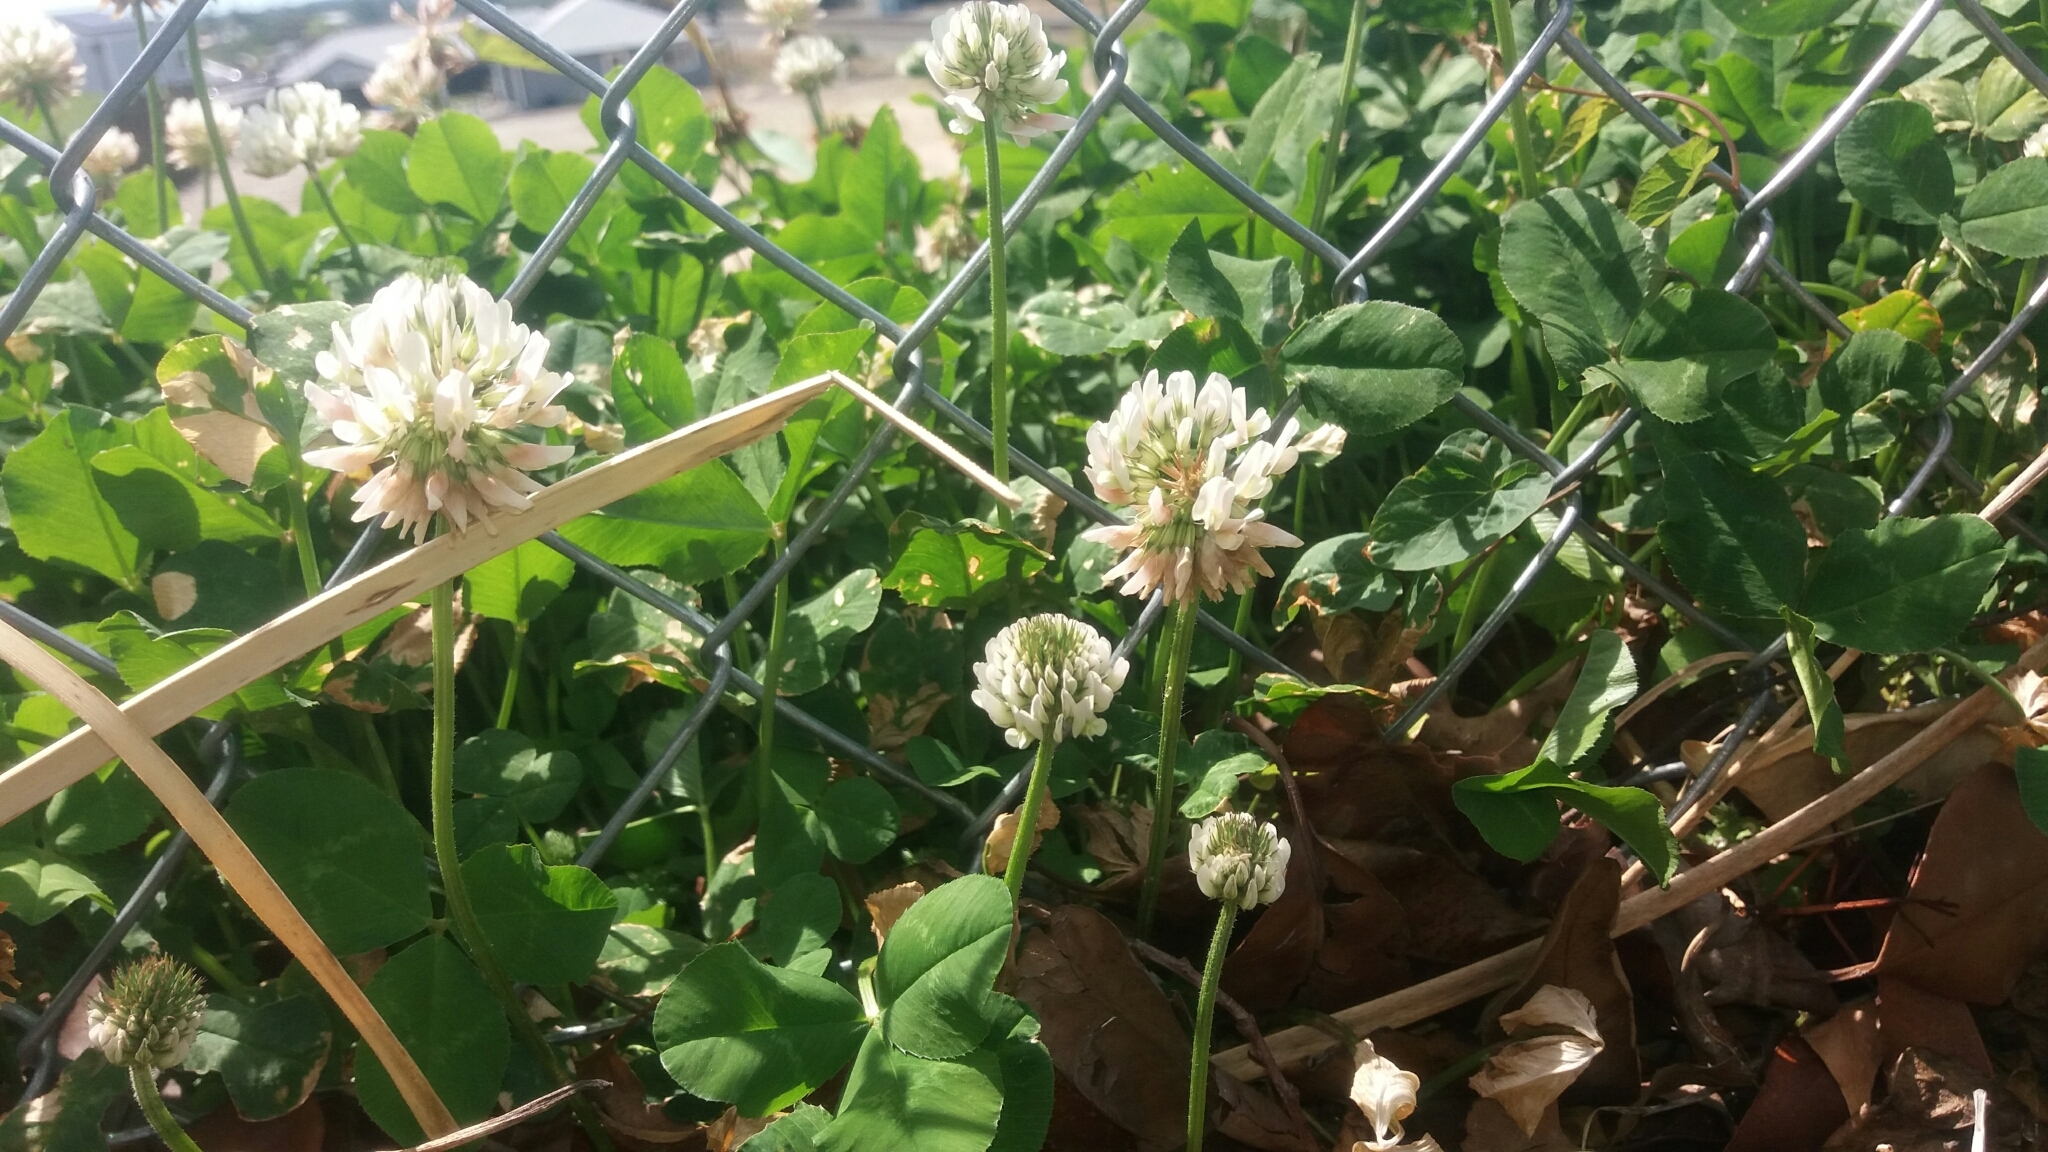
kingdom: Plantae
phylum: Tracheophyta
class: Magnoliopsida
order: Fabales
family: Fabaceae
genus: Trifolium
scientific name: Trifolium repens
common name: White clover
